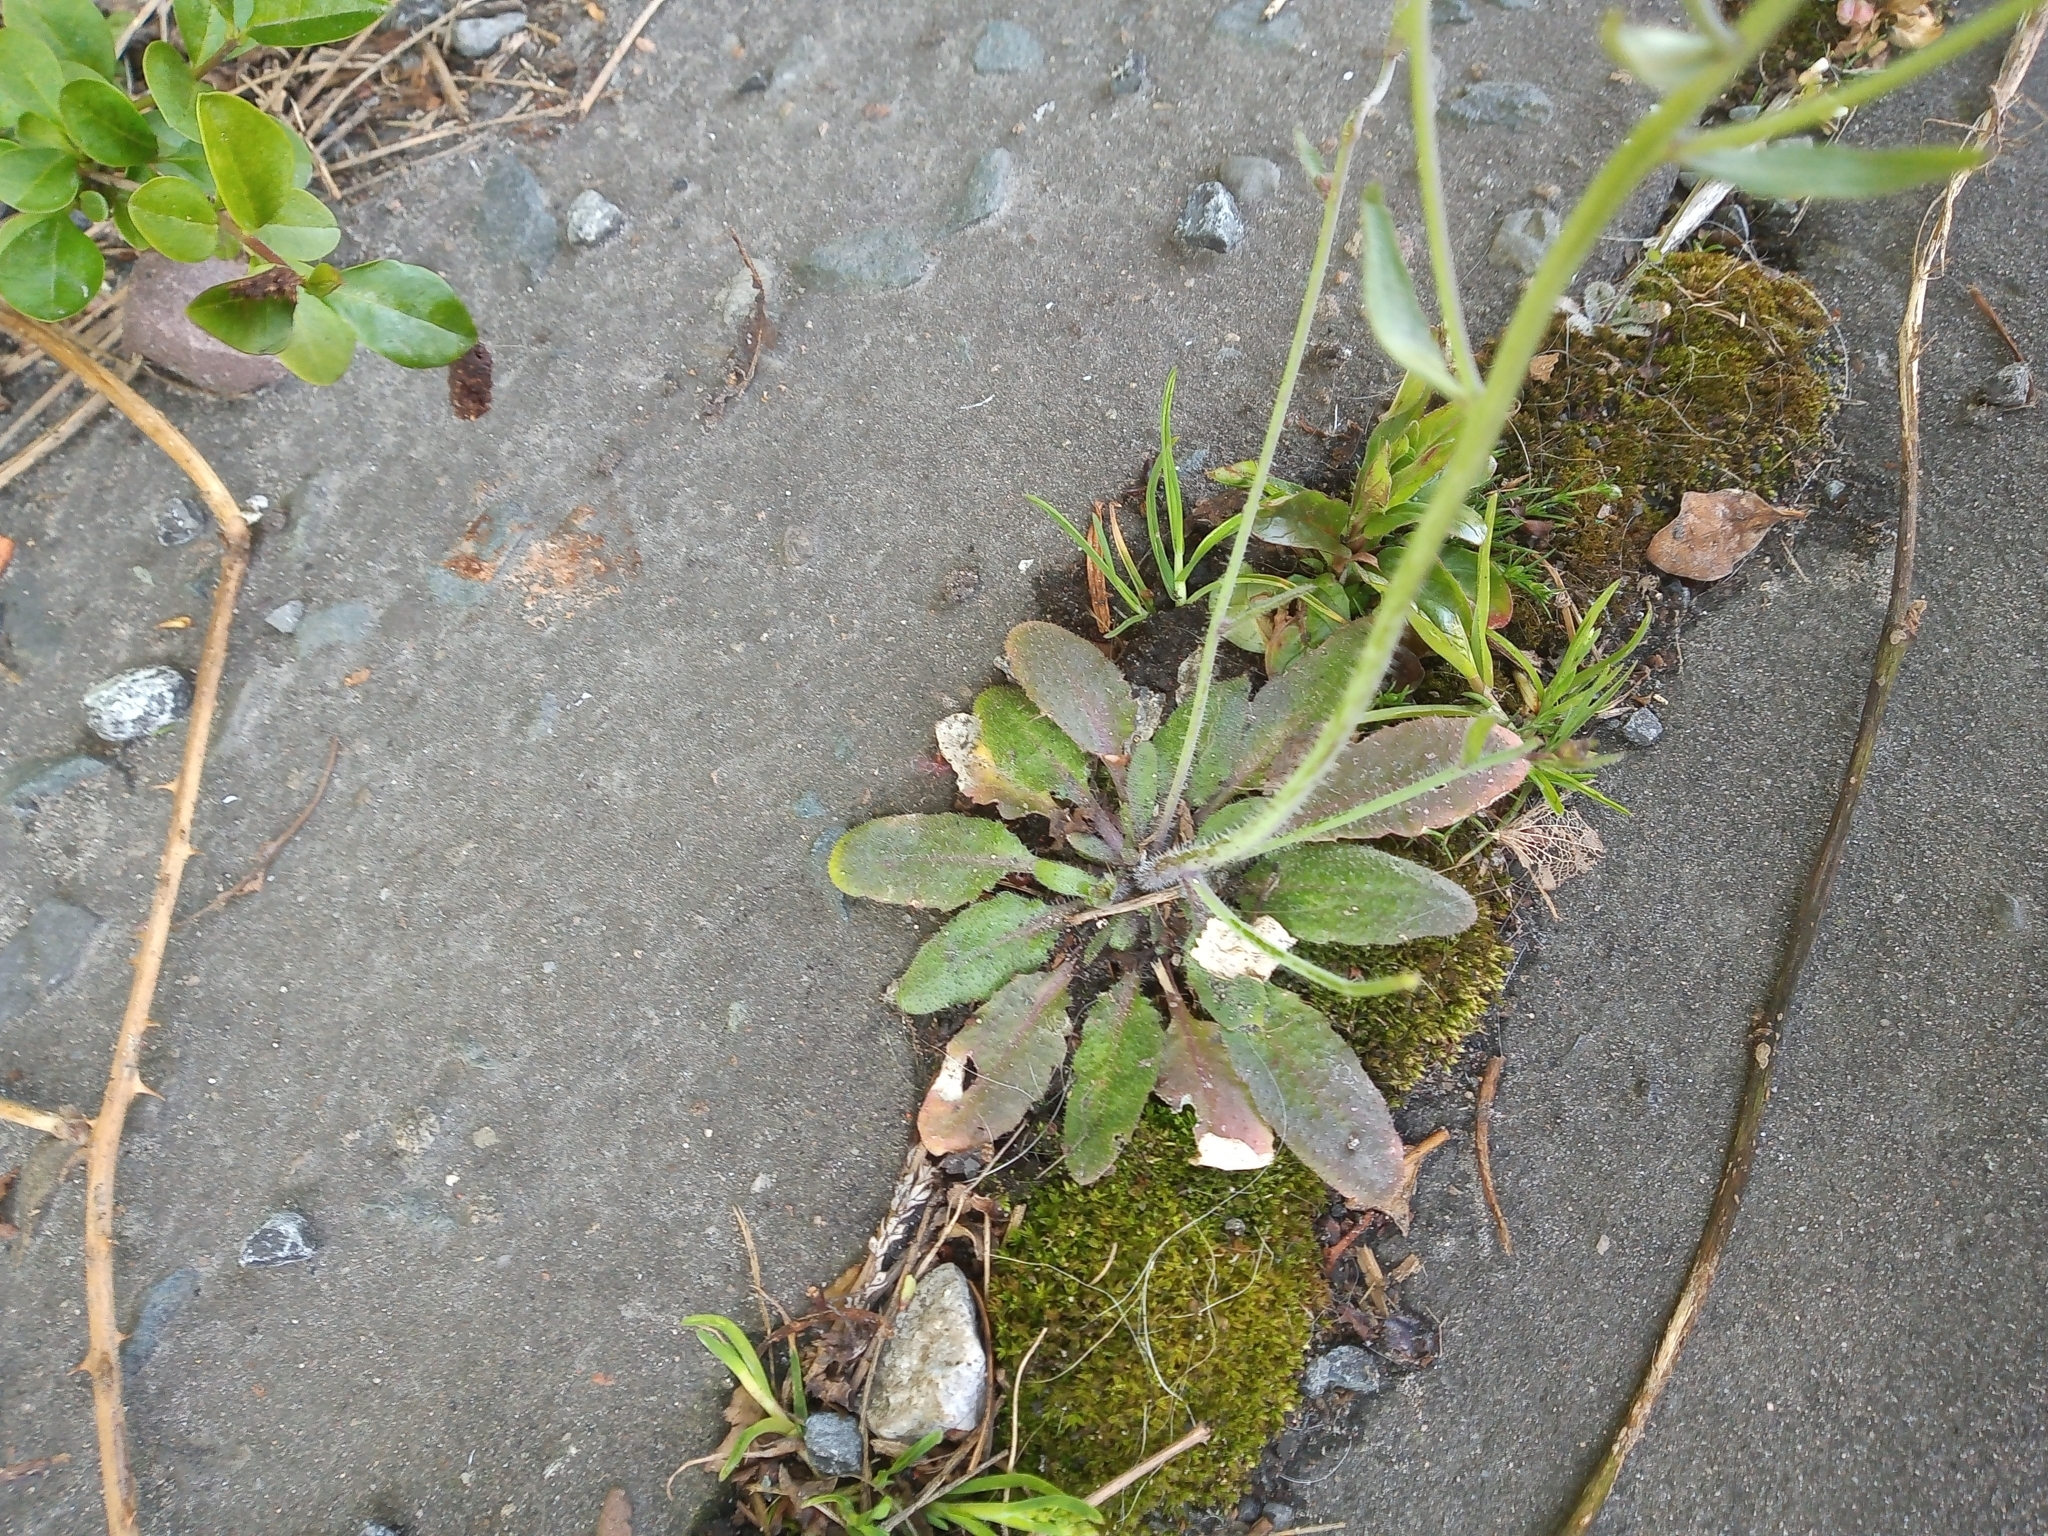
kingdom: Plantae
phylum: Tracheophyta
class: Magnoliopsida
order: Brassicales
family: Brassicaceae
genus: Arabidopsis
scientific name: Arabidopsis thaliana
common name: Thale cress
